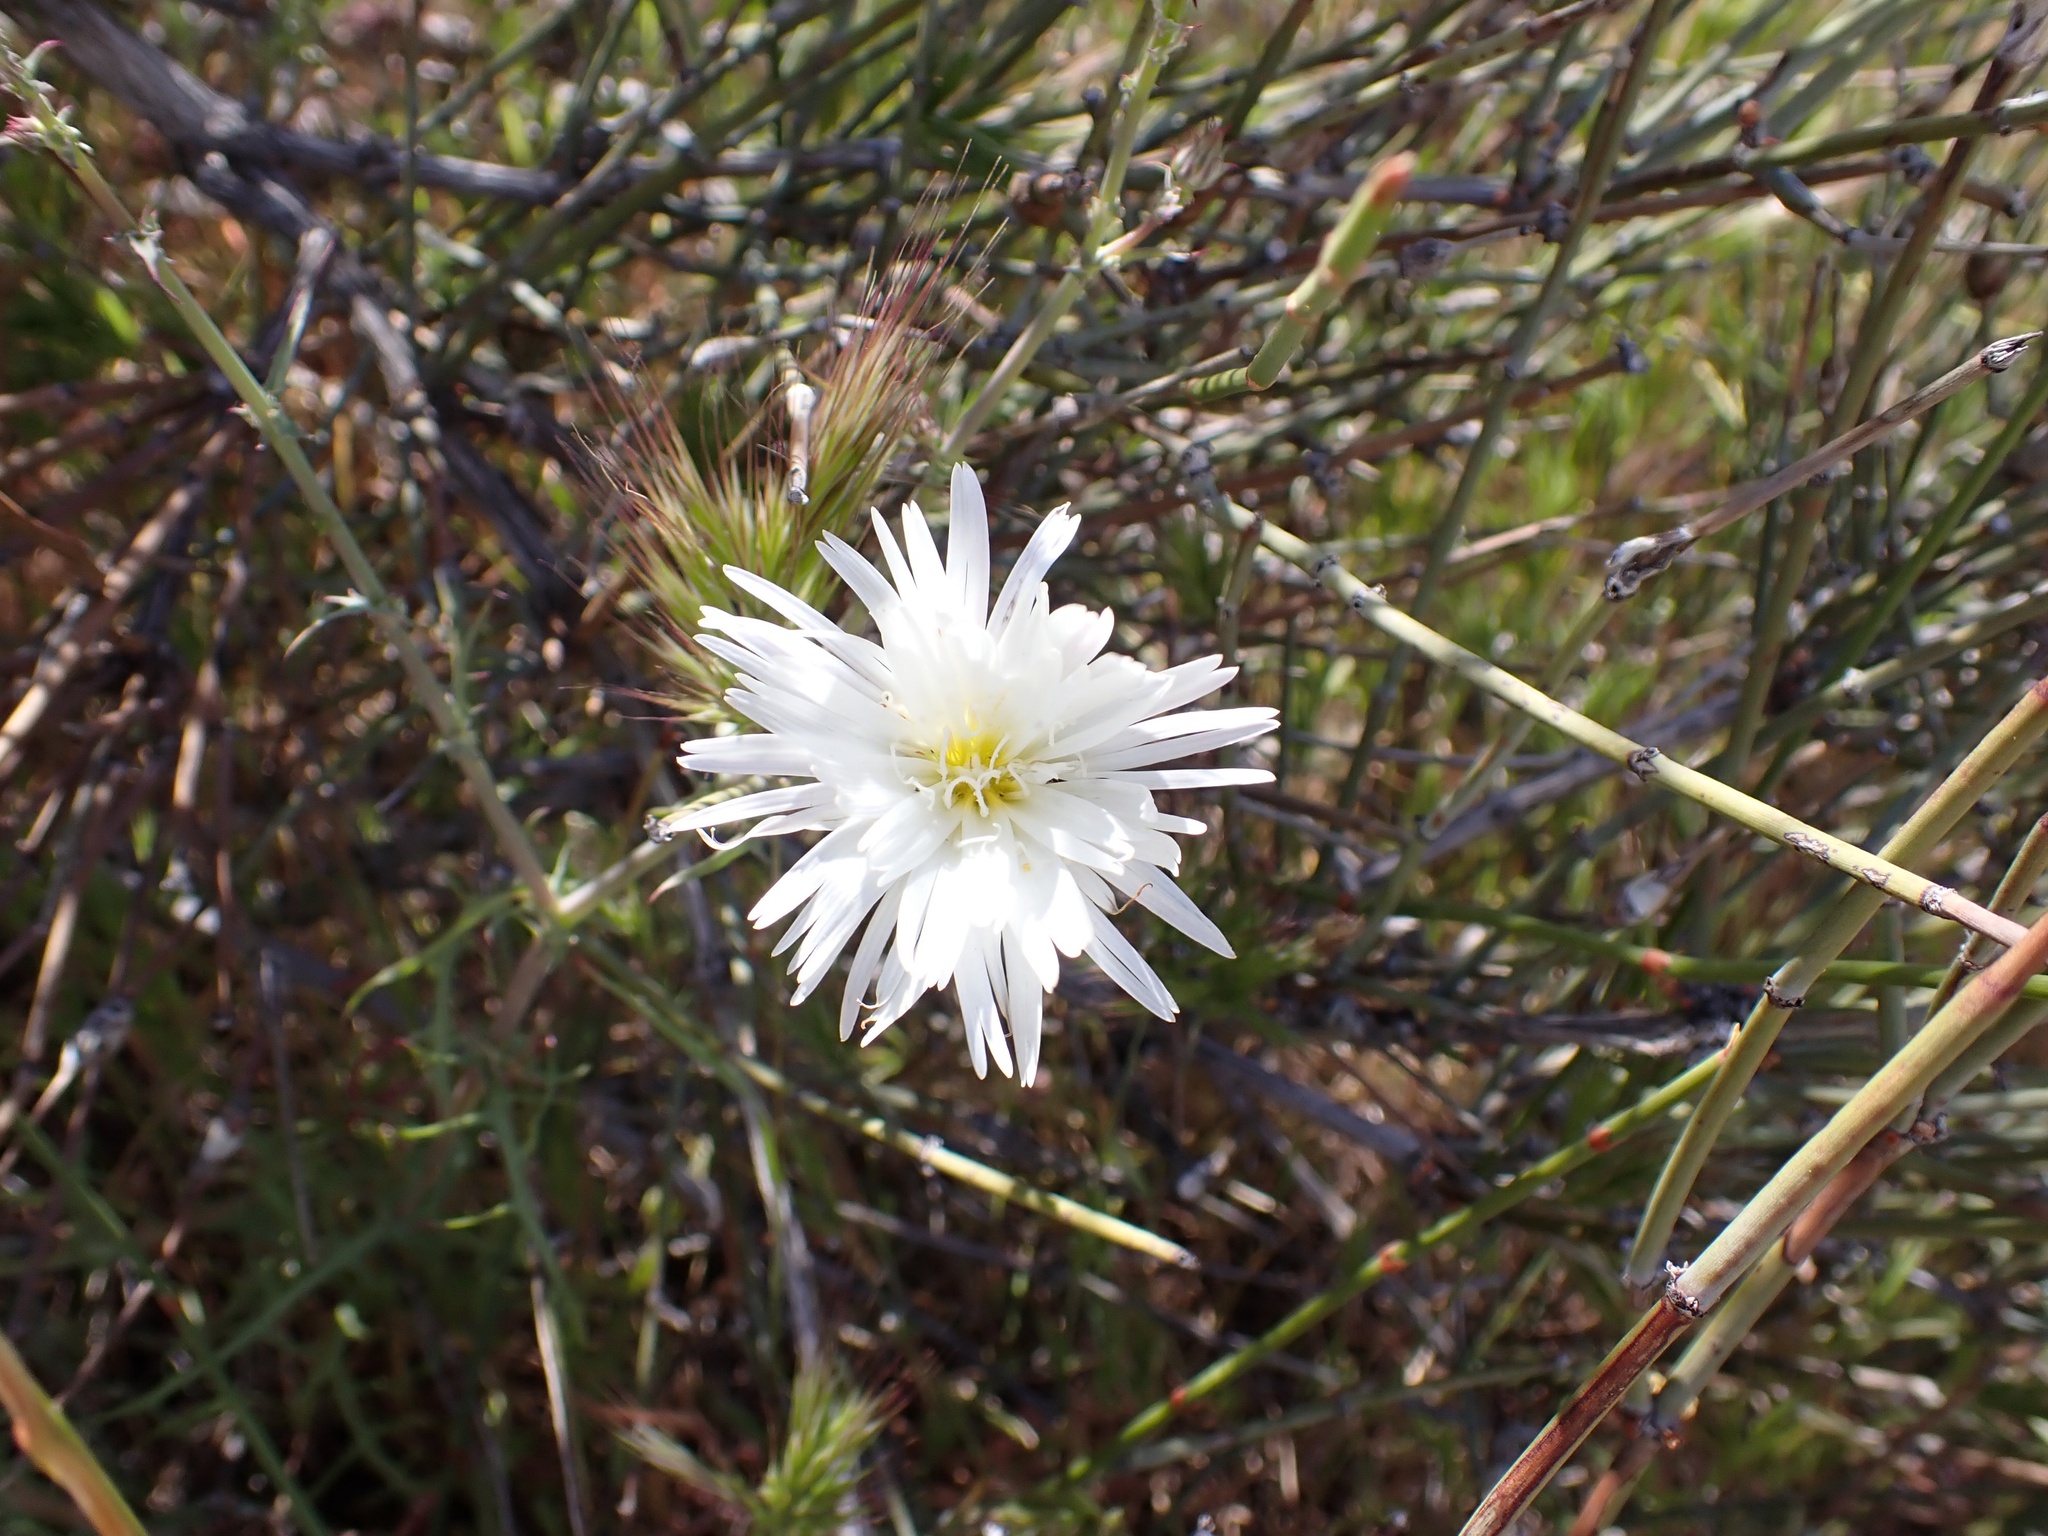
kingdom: Plantae
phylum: Tracheophyta
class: Magnoliopsida
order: Asterales
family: Asteraceae
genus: Rafinesquia
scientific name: Rafinesquia neomexicana
